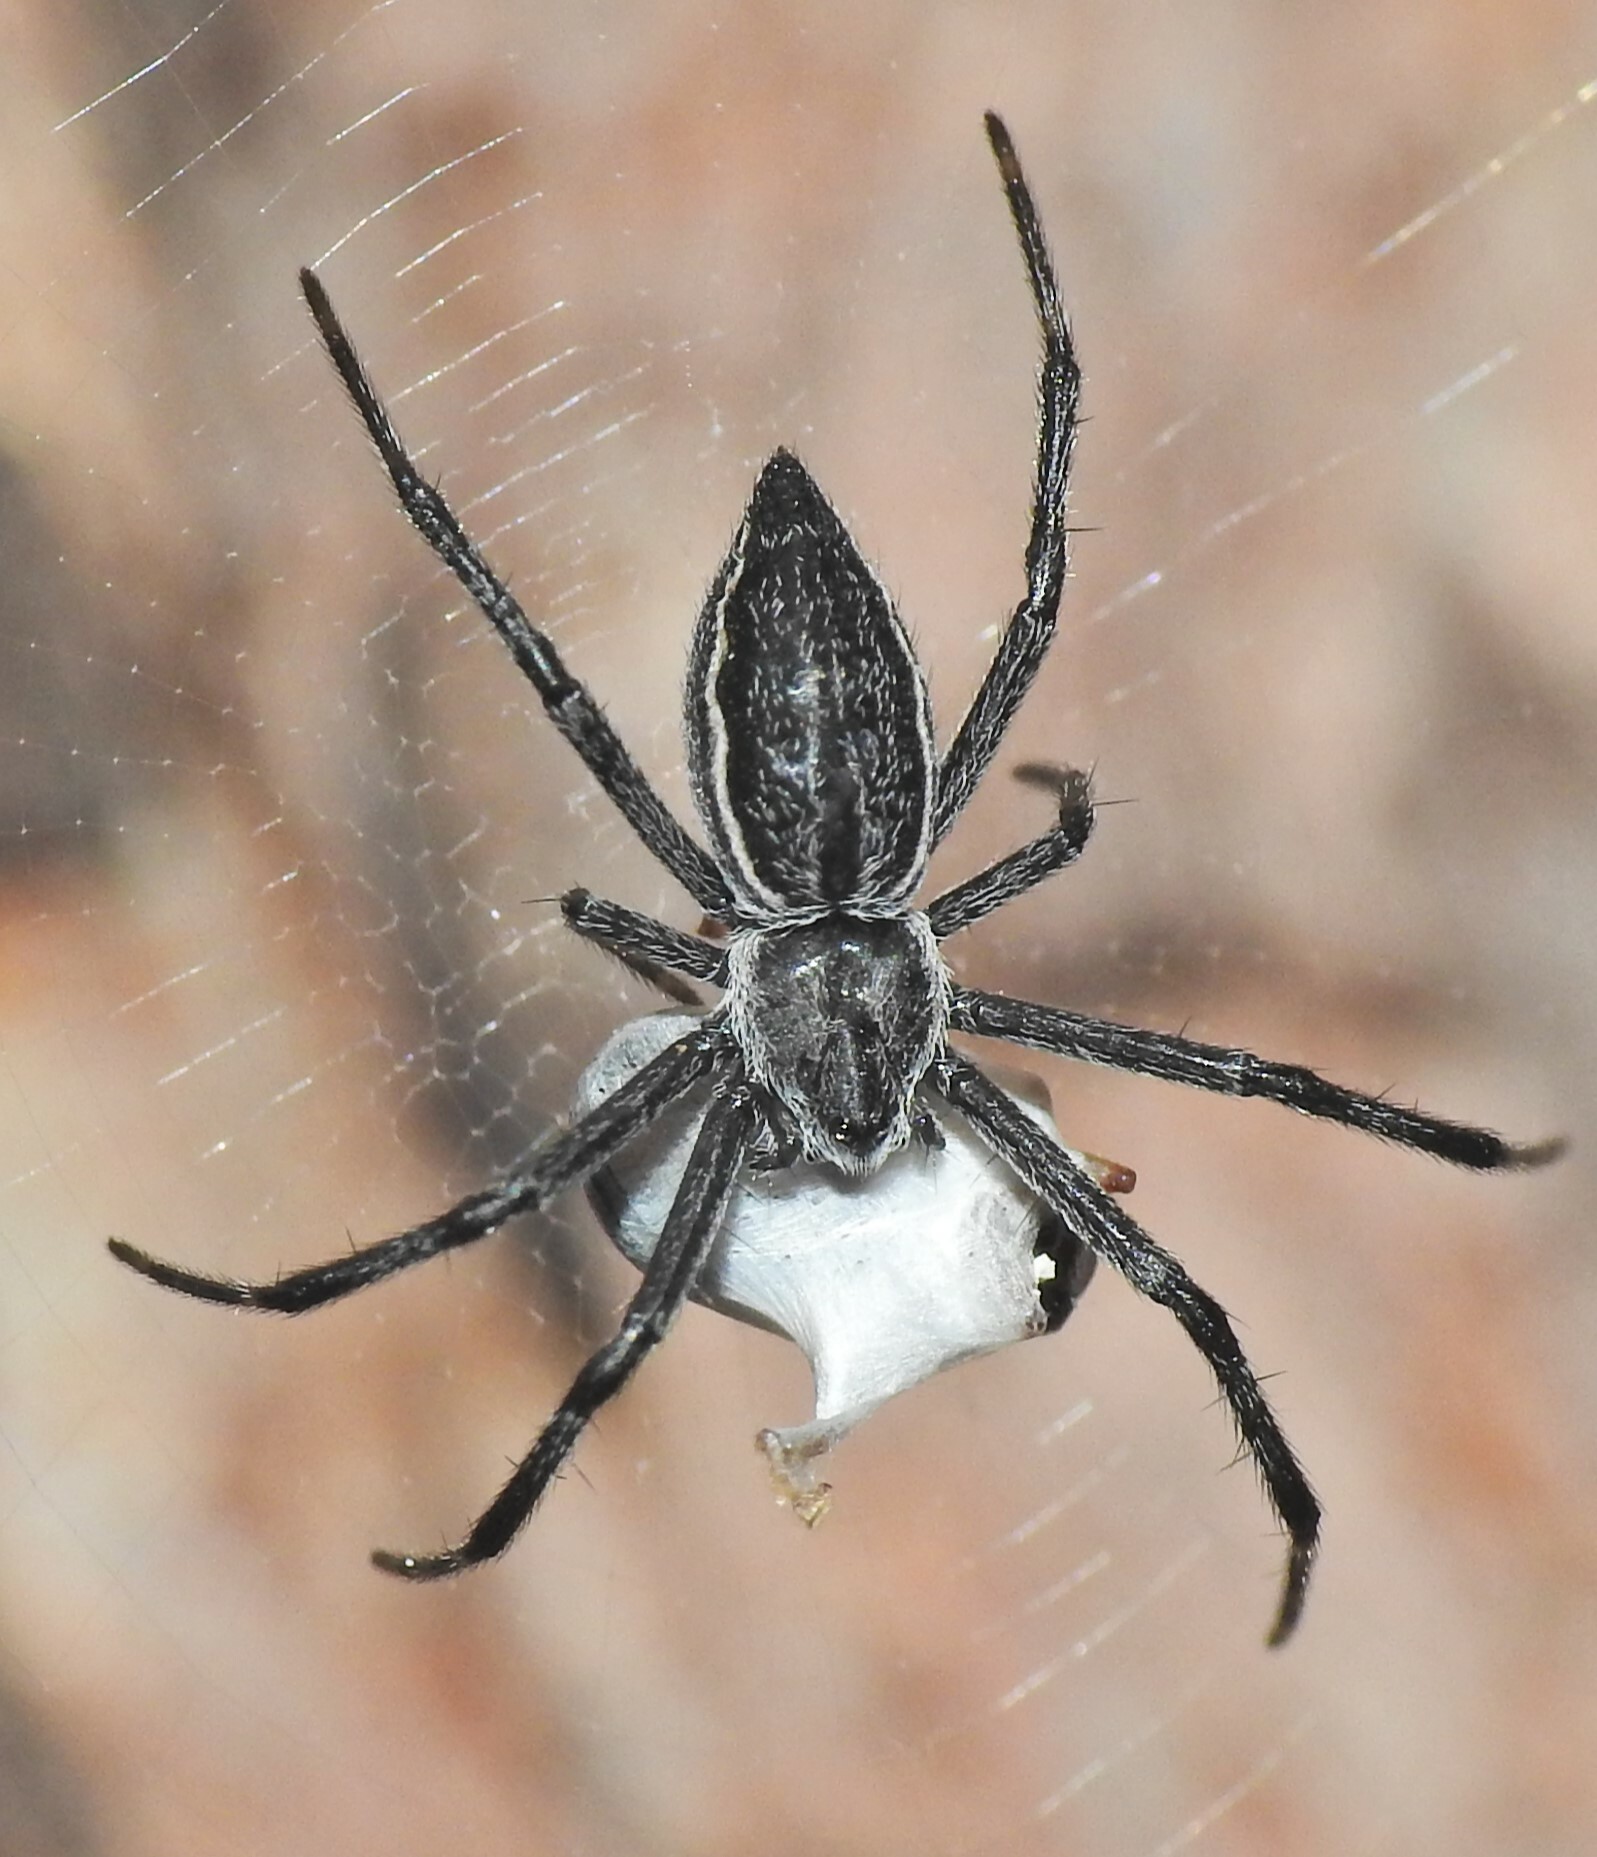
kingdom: Animalia
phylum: Arthropoda
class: Arachnida
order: Araneae
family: Araneidae
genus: Argiope
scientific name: Argiope ocyaloides
